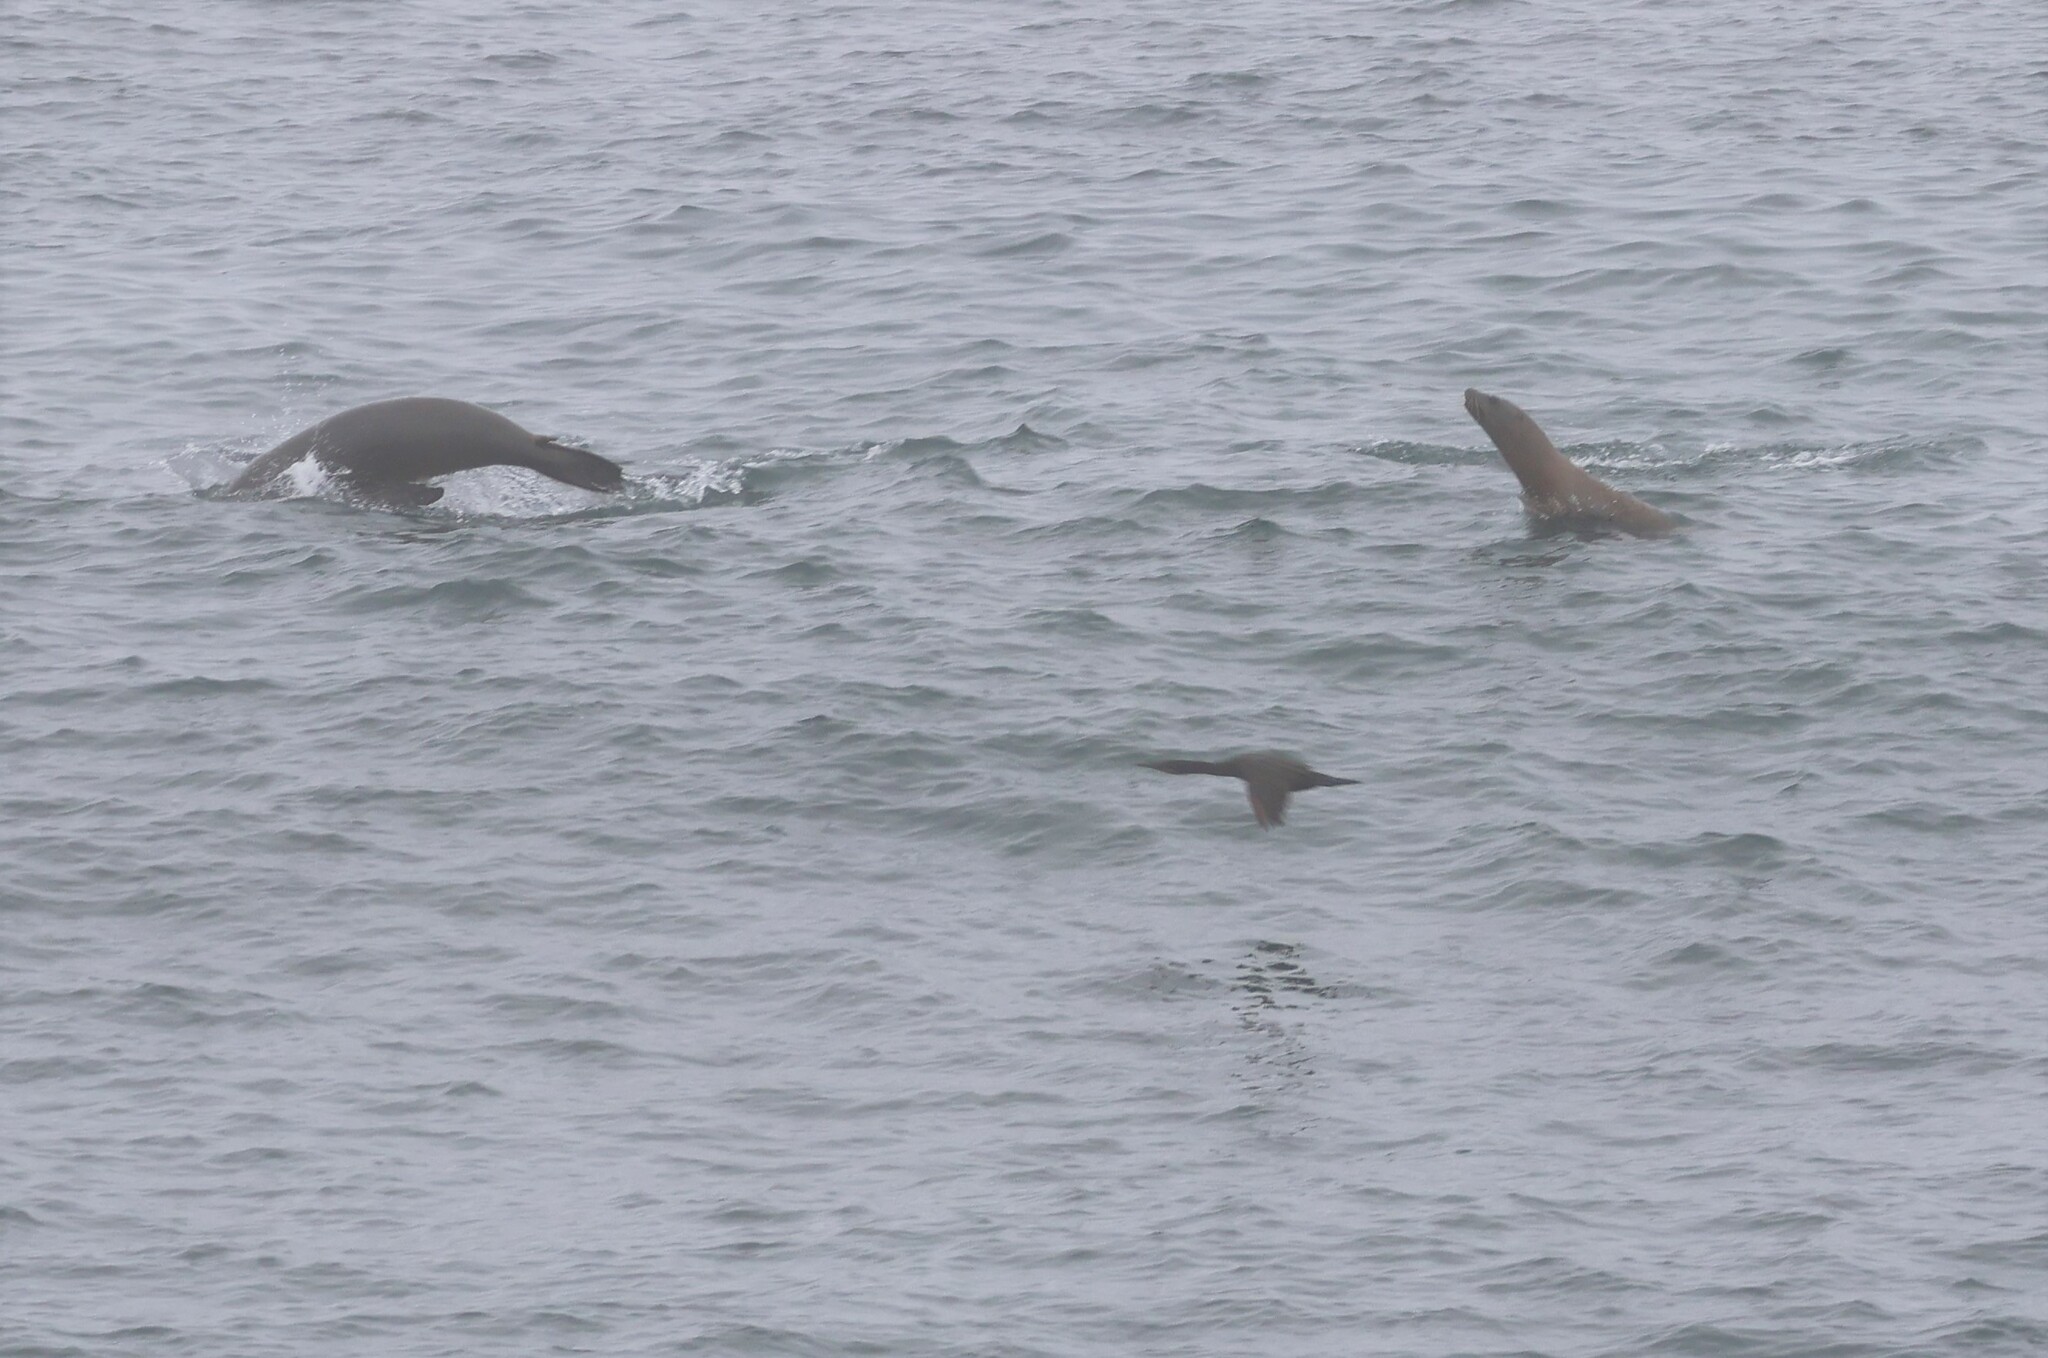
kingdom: Animalia
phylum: Chordata
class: Mammalia
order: Carnivora
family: Otariidae
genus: Zalophus
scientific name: Zalophus californianus
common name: California sea lion
